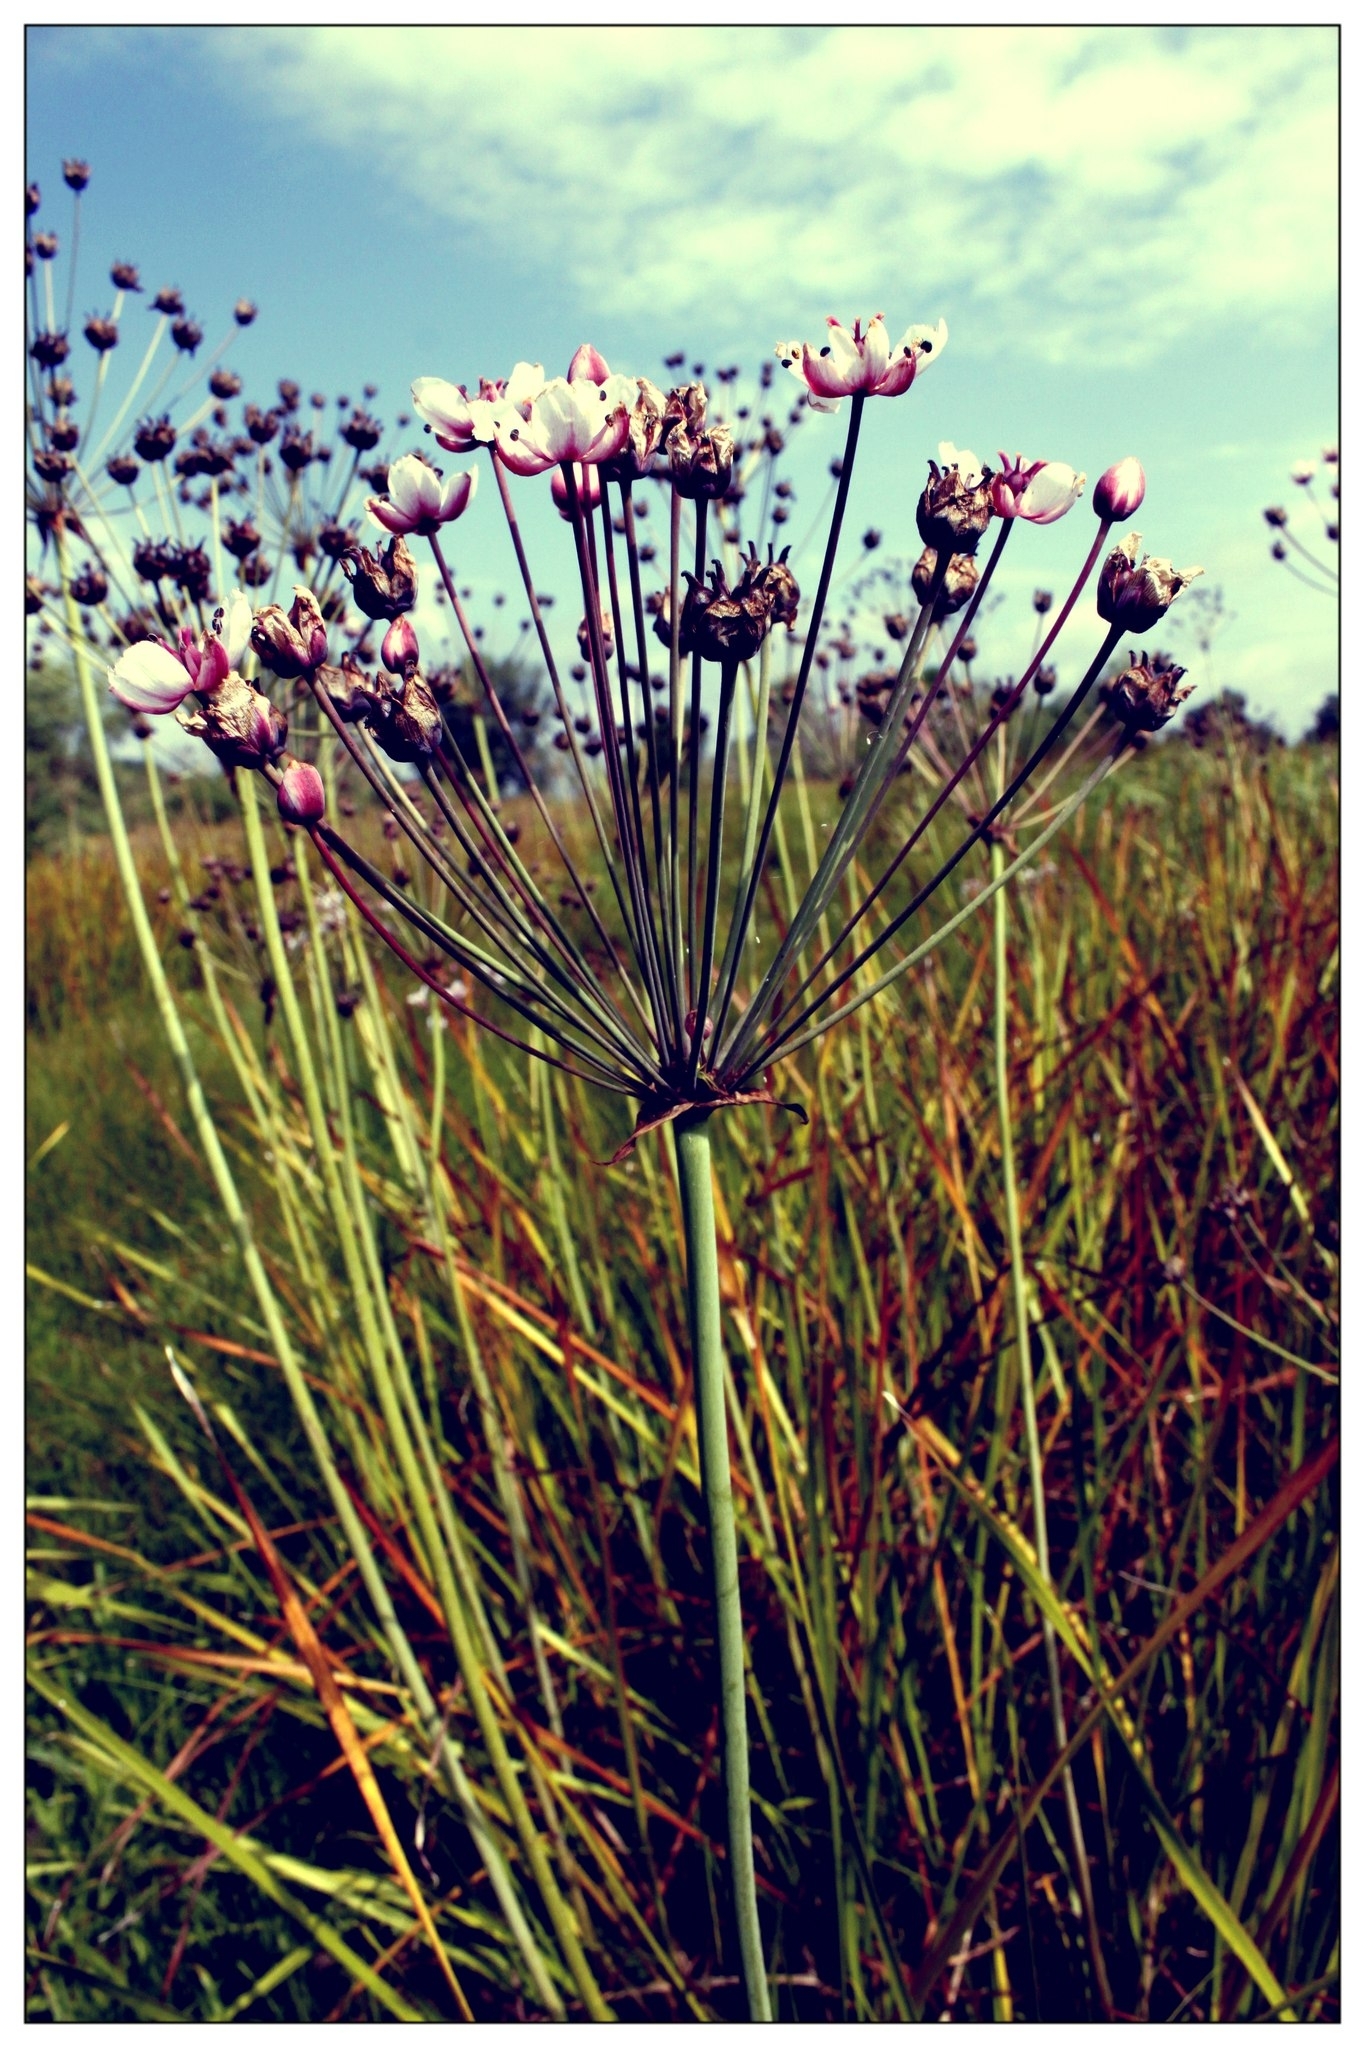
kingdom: Plantae
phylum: Tracheophyta
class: Liliopsida
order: Alismatales
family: Butomaceae
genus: Butomus
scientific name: Butomus umbellatus
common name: Flowering-rush
